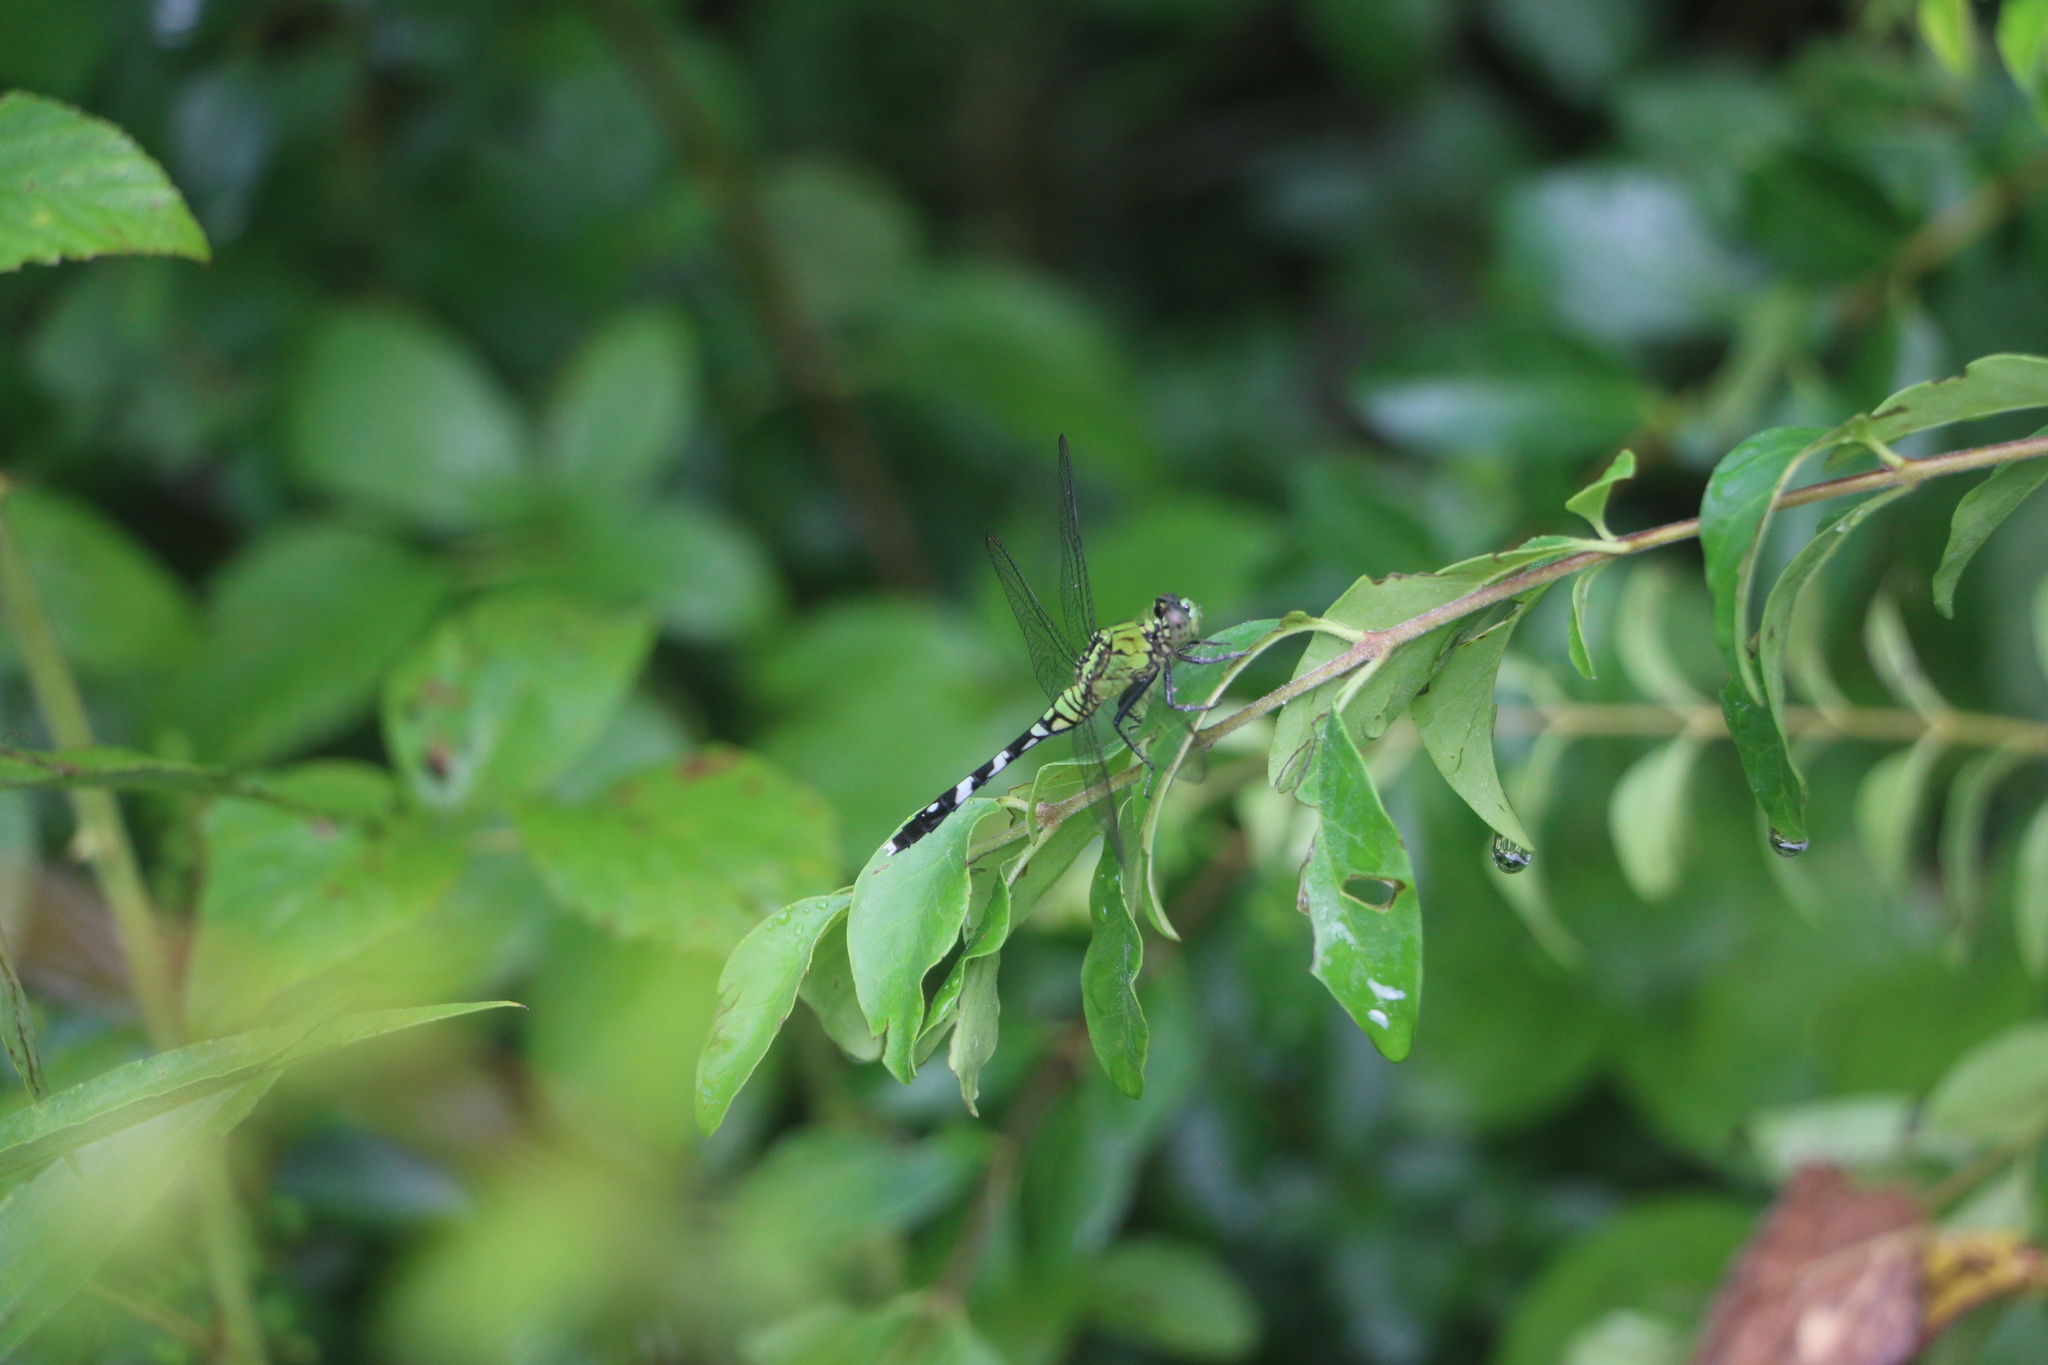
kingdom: Animalia
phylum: Arthropoda
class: Insecta
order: Odonata
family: Libellulidae
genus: Erythemis
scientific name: Erythemis simplicicollis
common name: Eastern pondhawk
